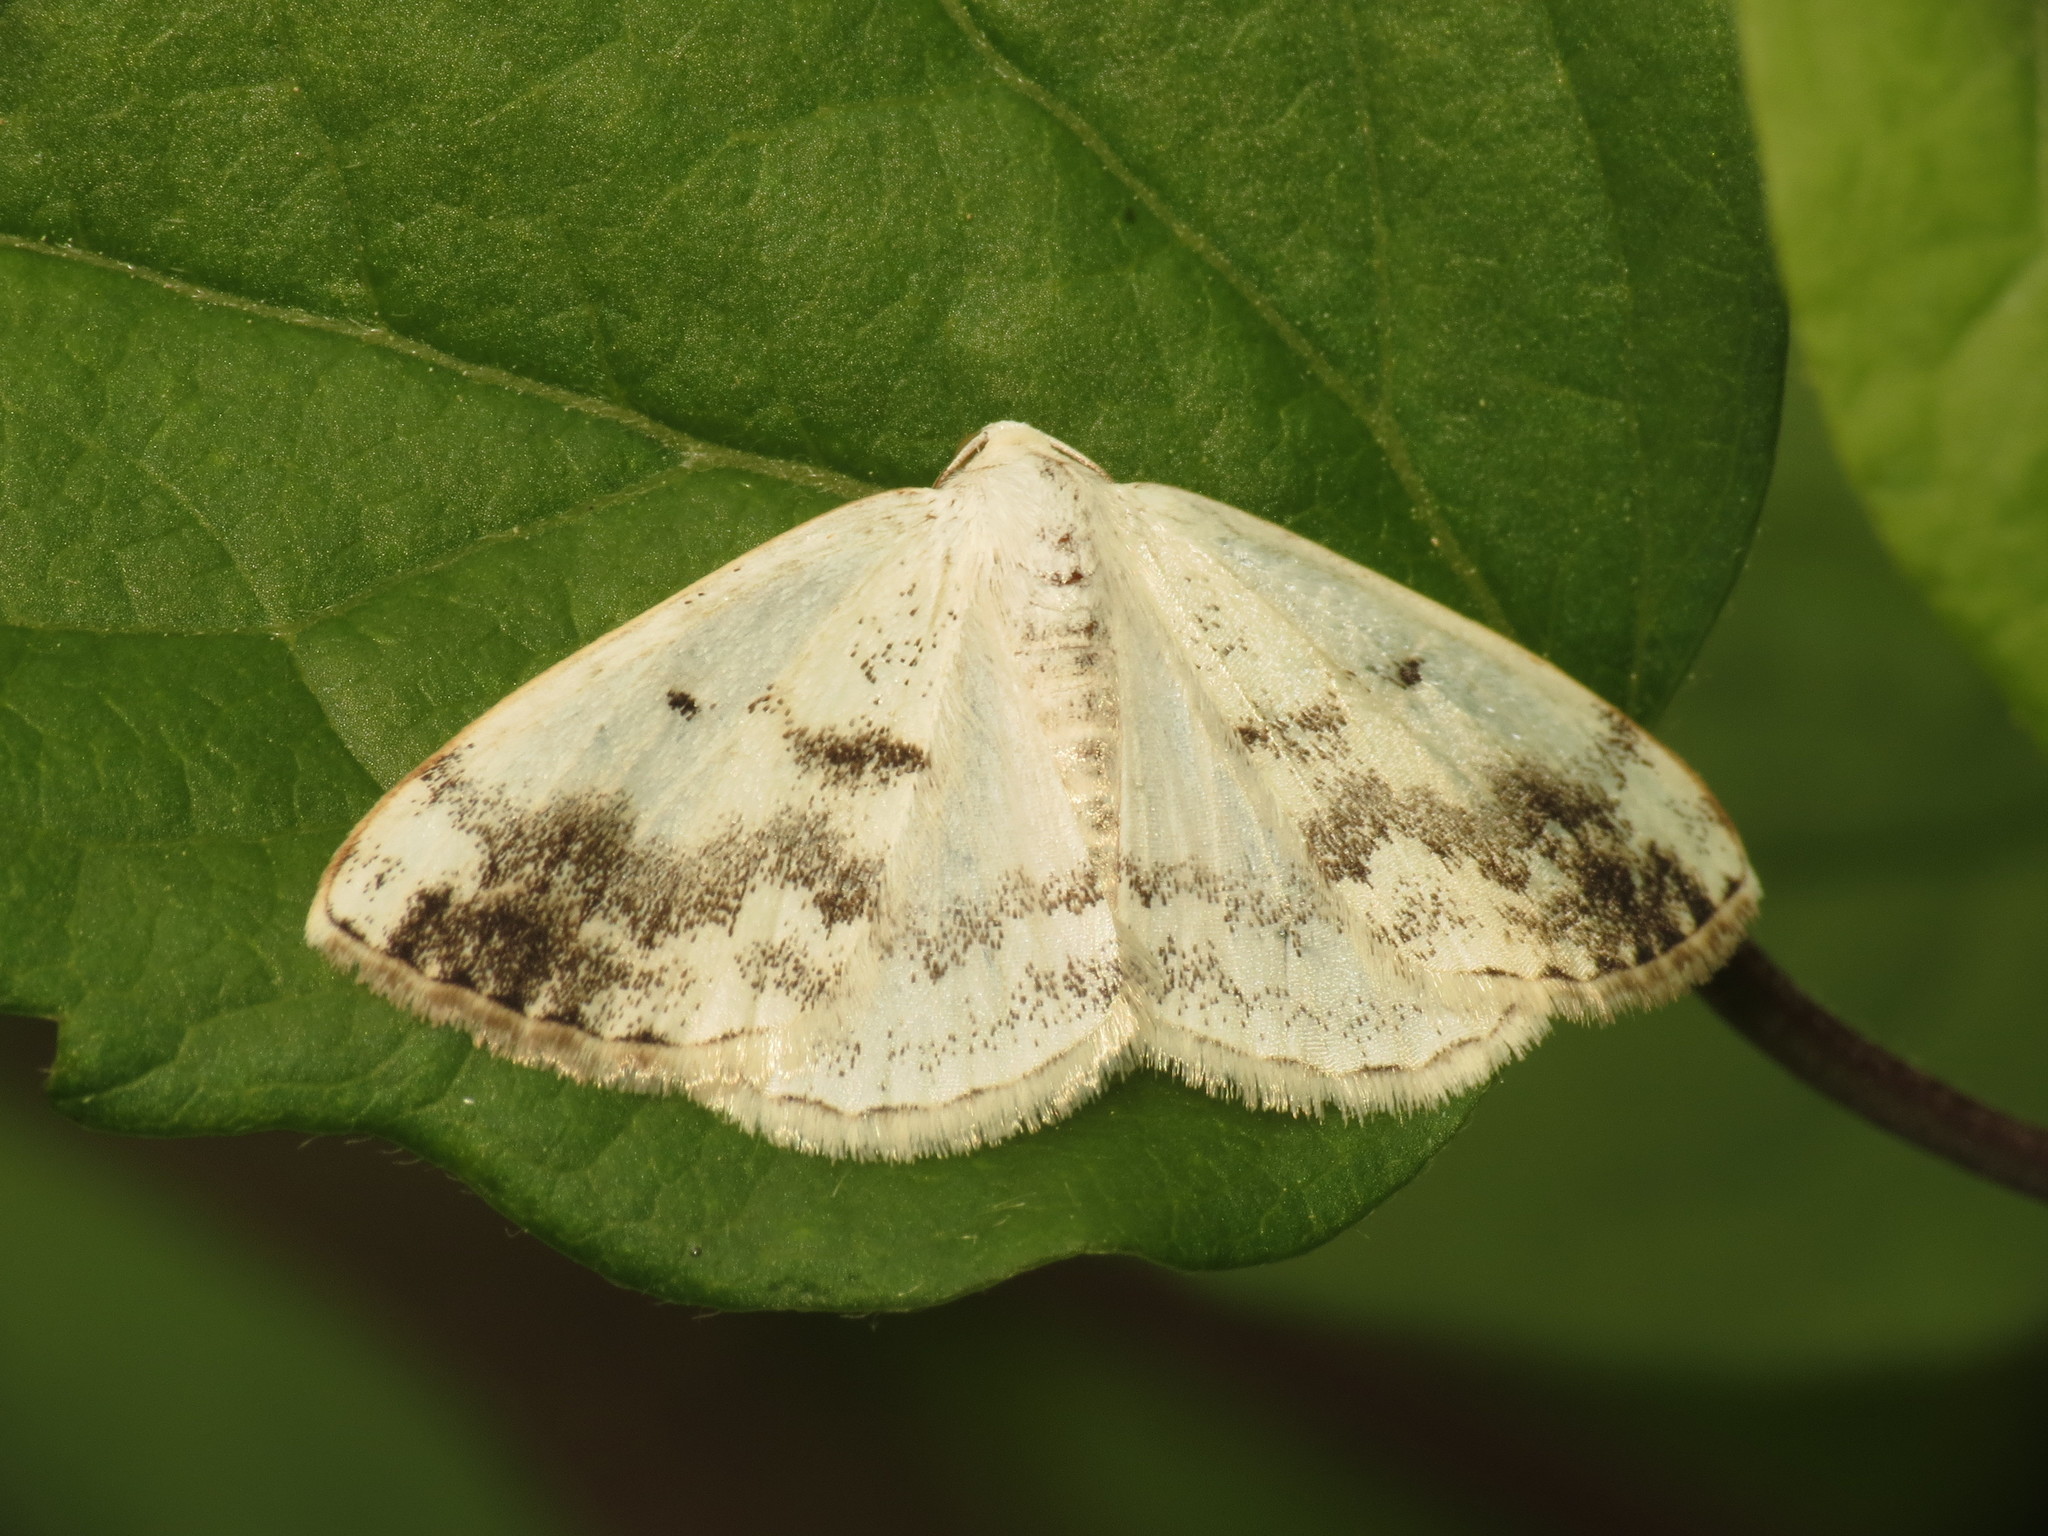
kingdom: Animalia
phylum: Arthropoda
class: Insecta
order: Lepidoptera
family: Geometridae
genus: Lomographa
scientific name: Lomographa temerata
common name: Clouded silver
